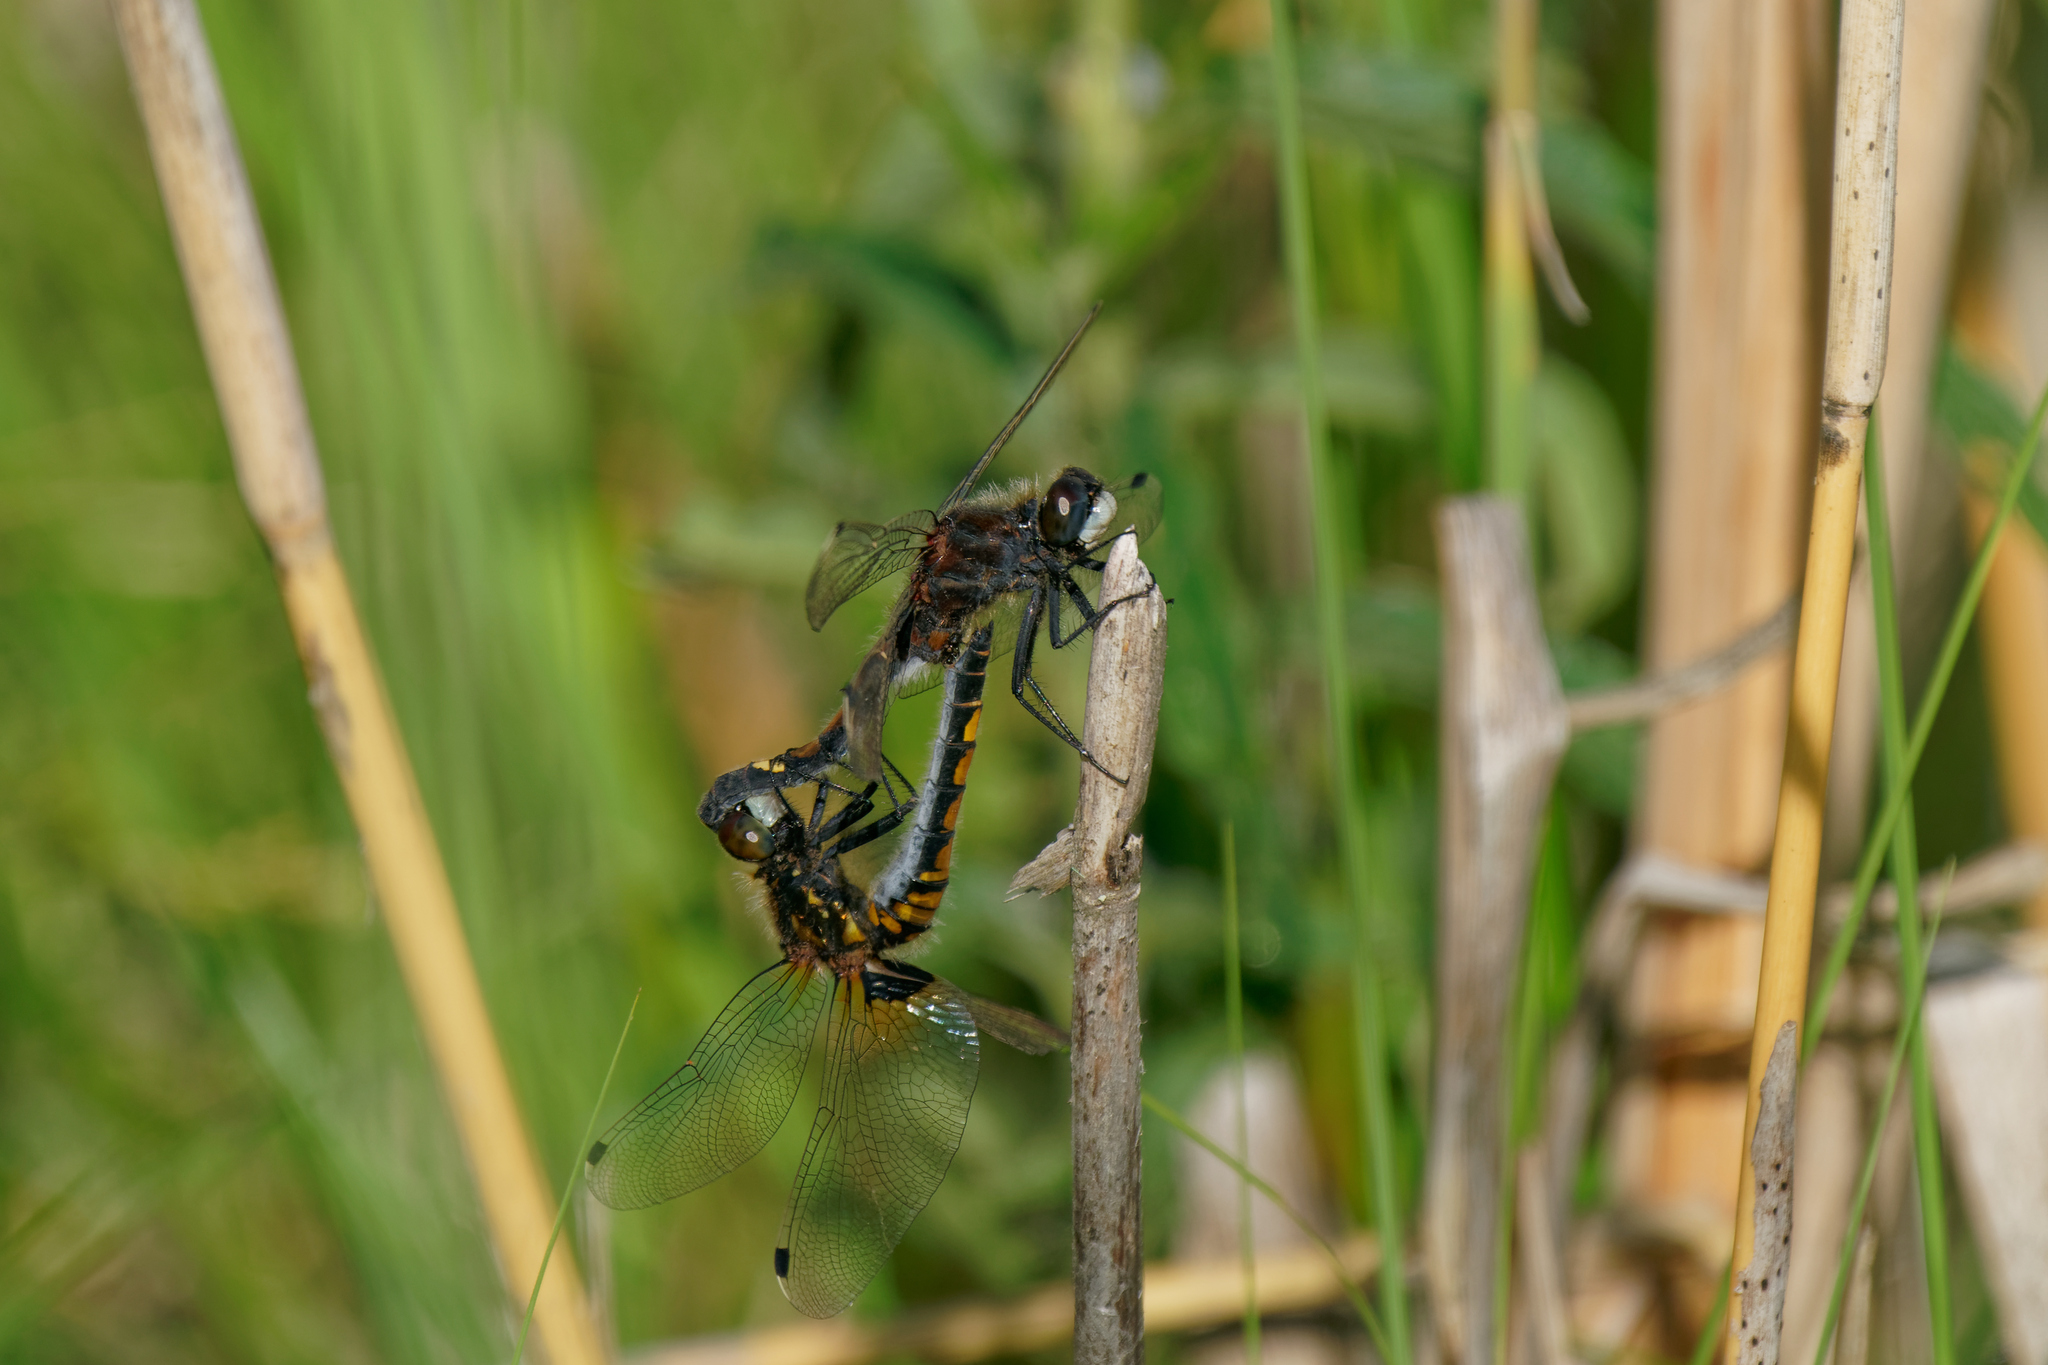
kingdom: Animalia
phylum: Arthropoda
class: Insecta
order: Odonata
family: Libellulidae
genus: Leucorrhinia
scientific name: Leucorrhinia pectoralis
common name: Yellow-spotted whiteface
